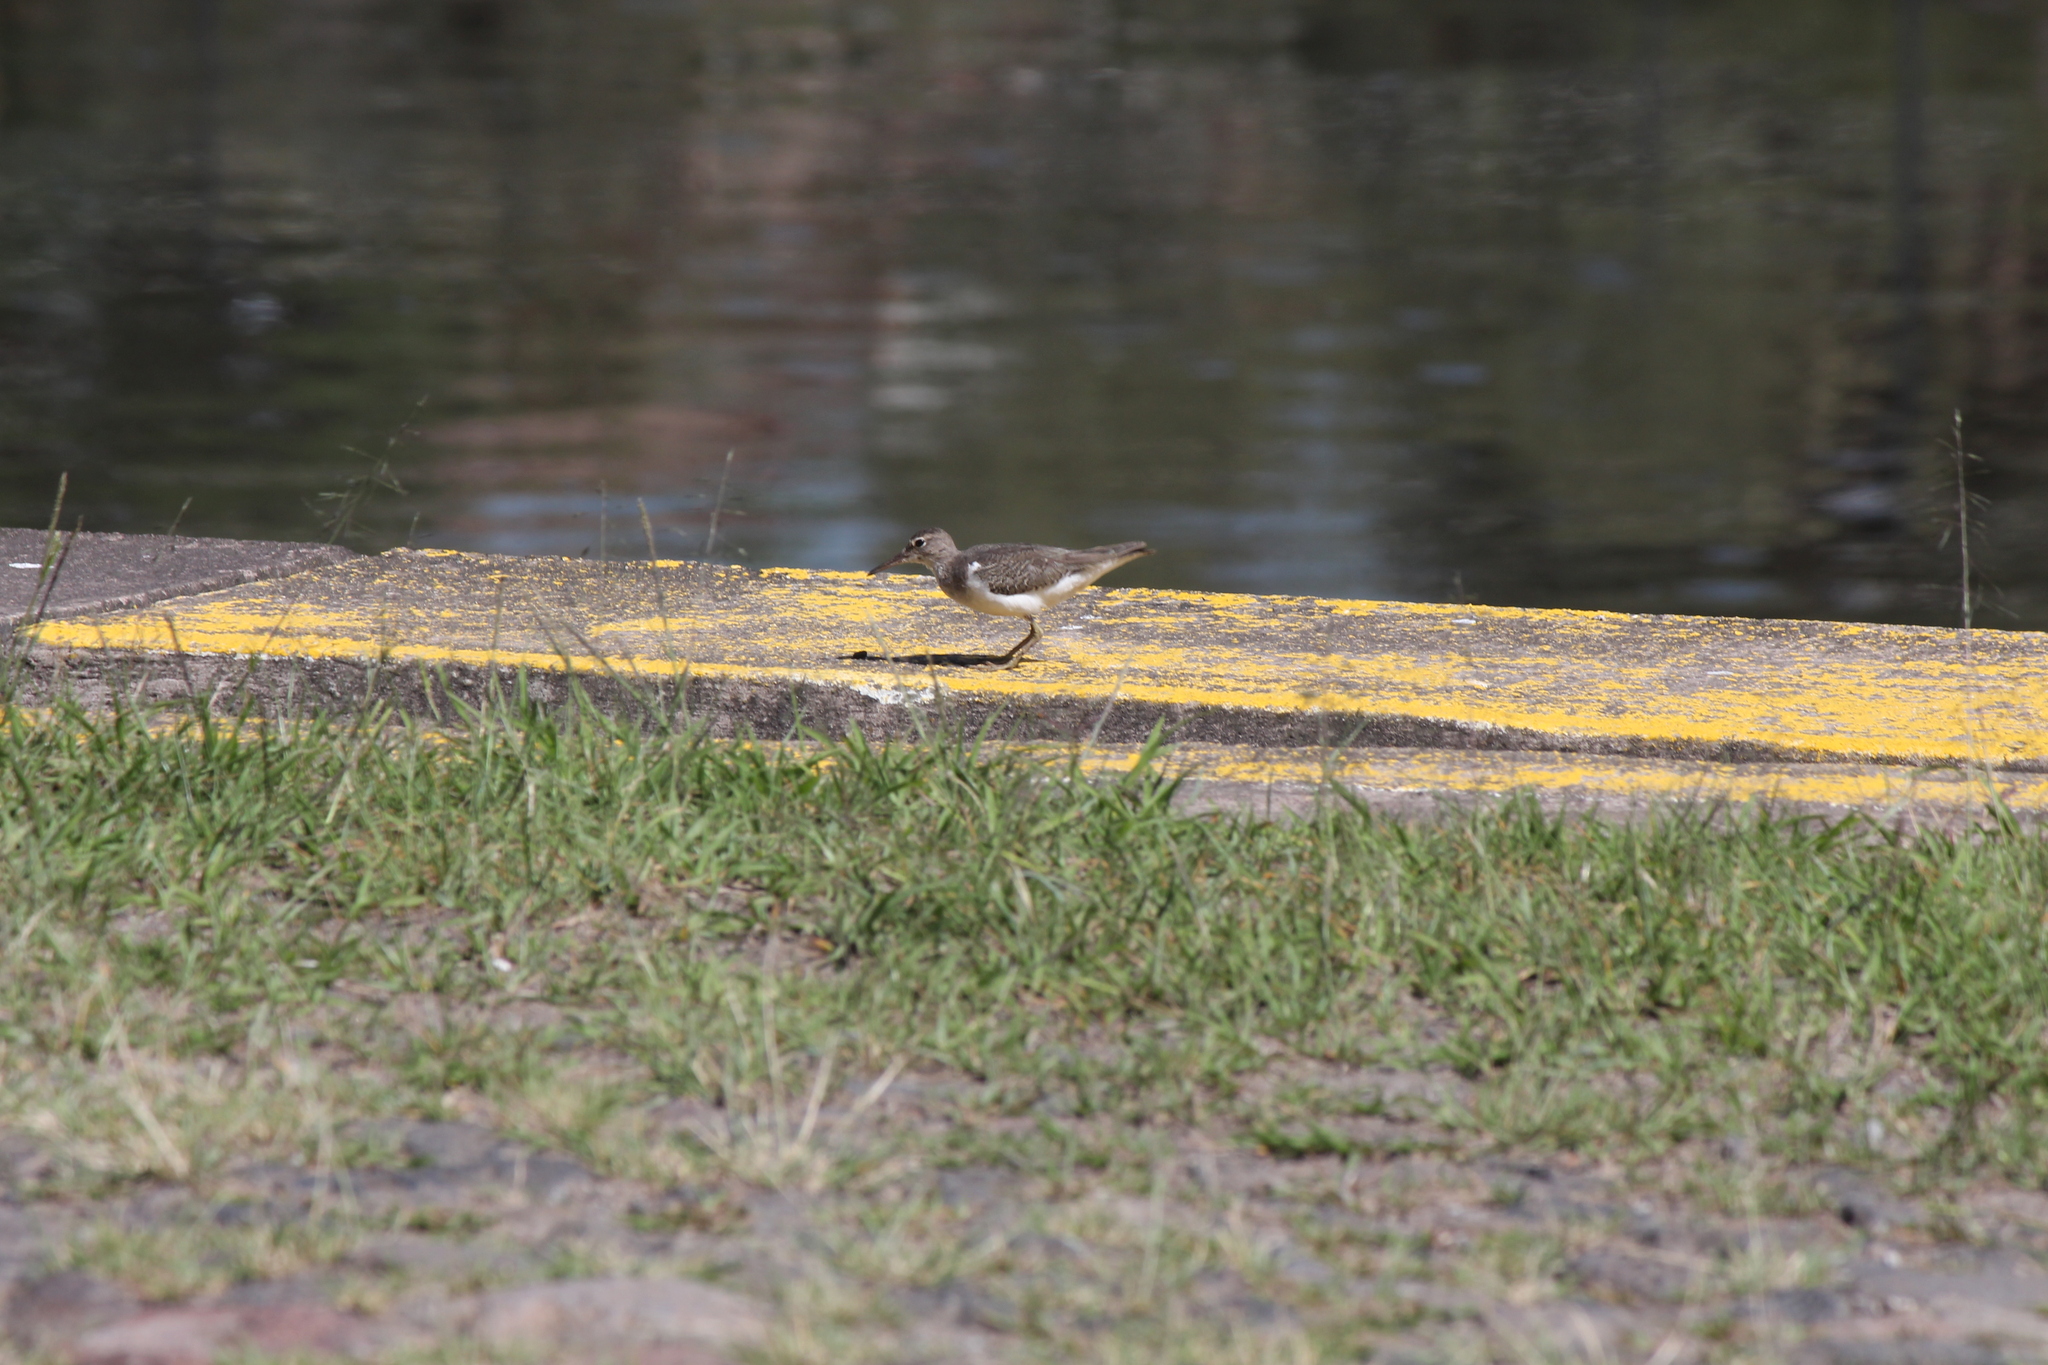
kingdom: Animalia
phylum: Chordata
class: Aves
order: Charadriiformes
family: Scolopacidae
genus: Actitis
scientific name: Actitis macularius
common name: Spotted sandpiper
